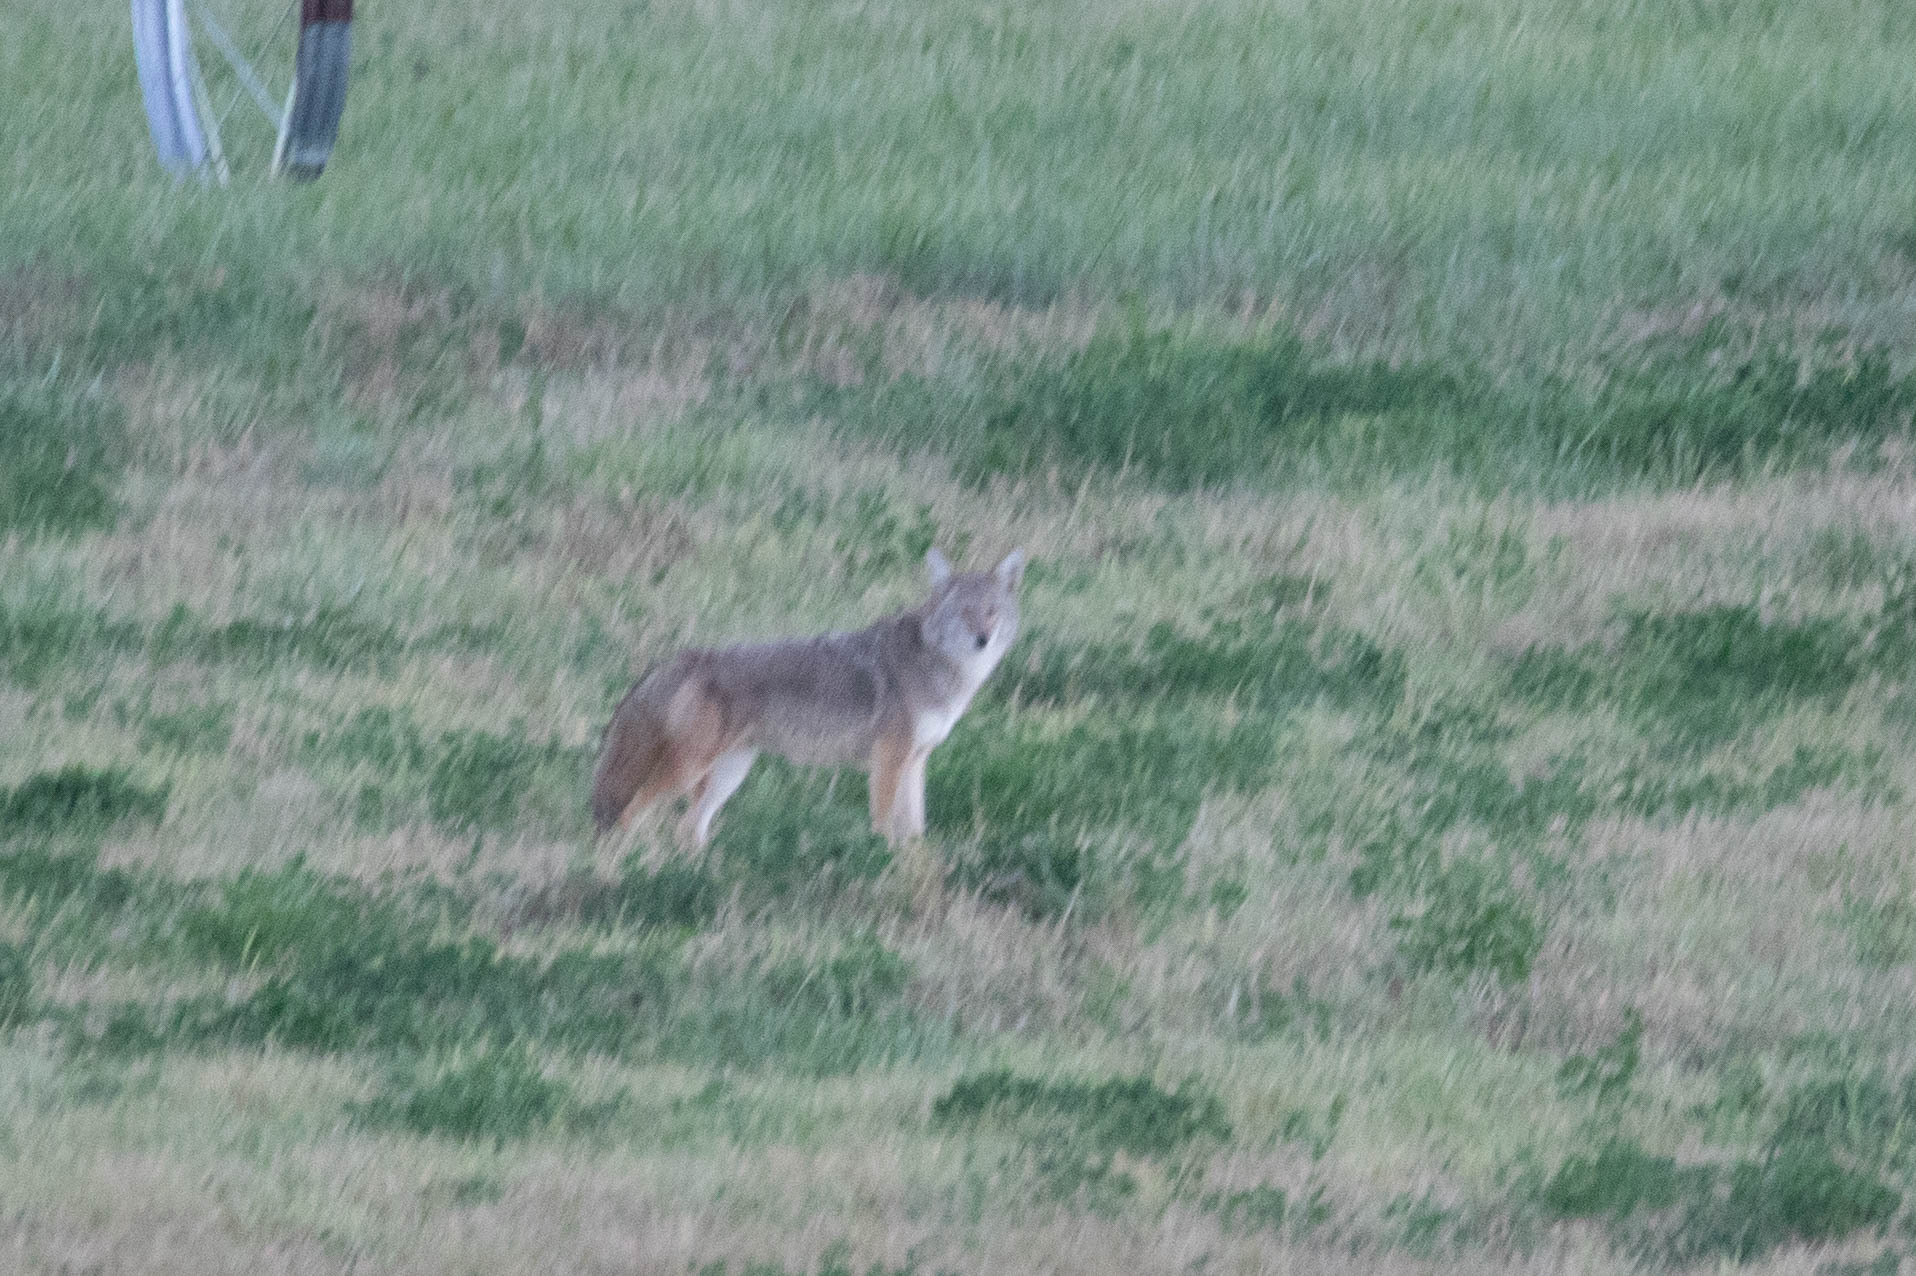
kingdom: Animalia
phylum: Chordata
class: Mammalia
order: Carnivora
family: Canidae
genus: Canis
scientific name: Canis latrans
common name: Coyote
